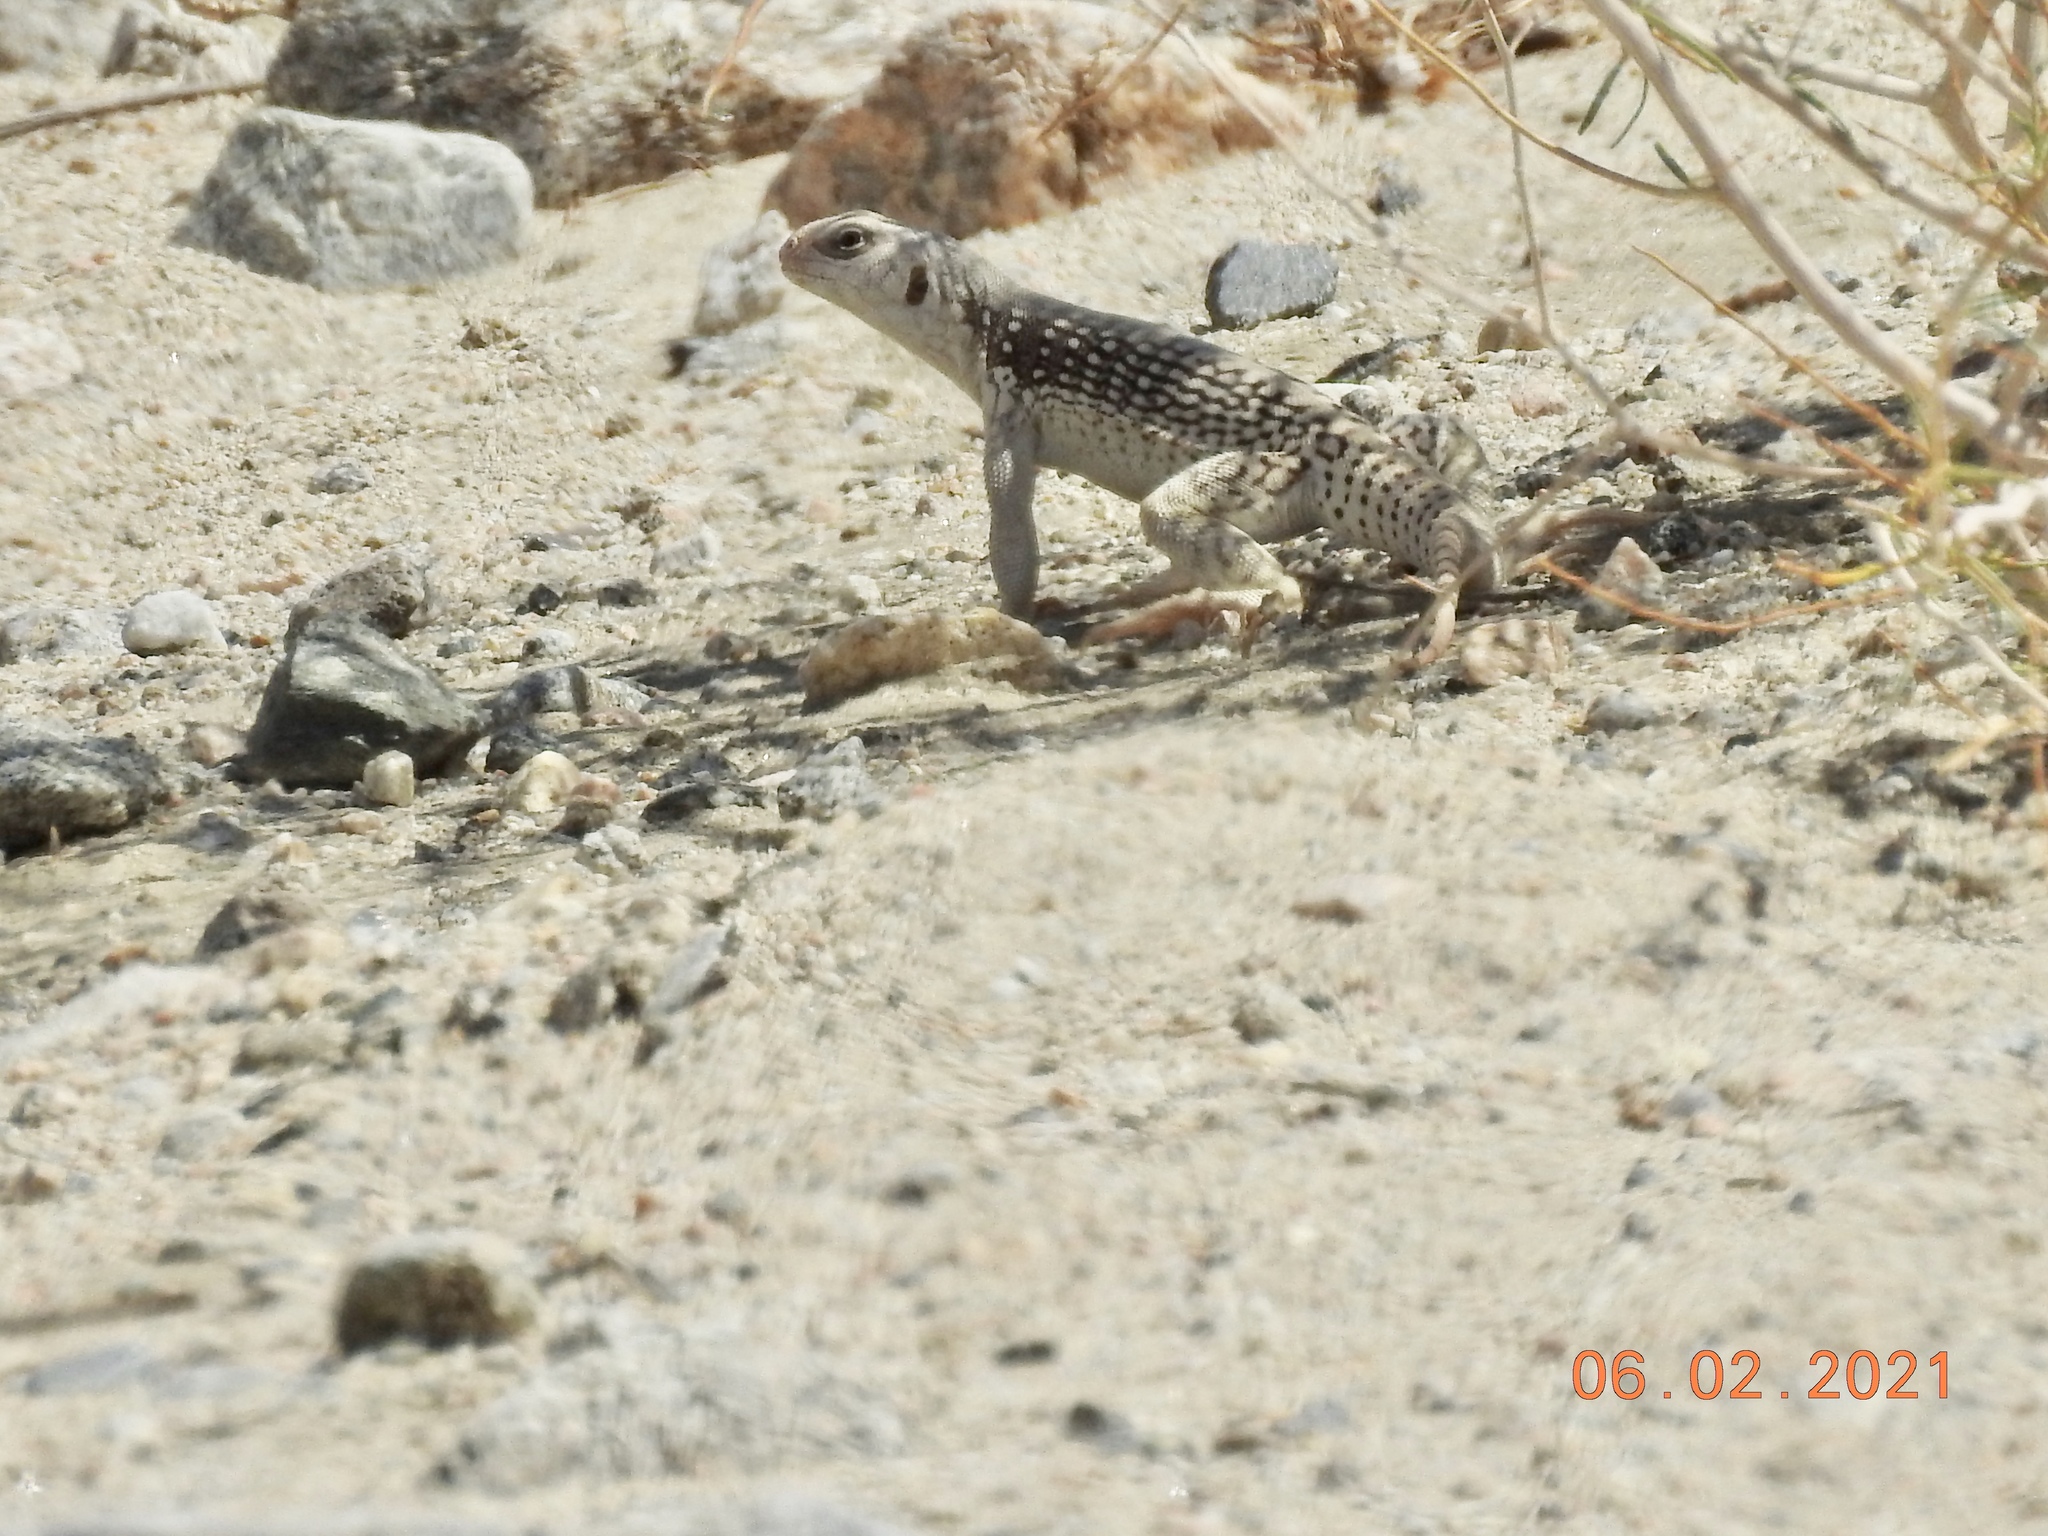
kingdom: Animalia
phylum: Chordata
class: Squamata
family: Iguanidae
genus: Dipsosaurus
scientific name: Dipsosaurus dorsalis
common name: Desert iguana
